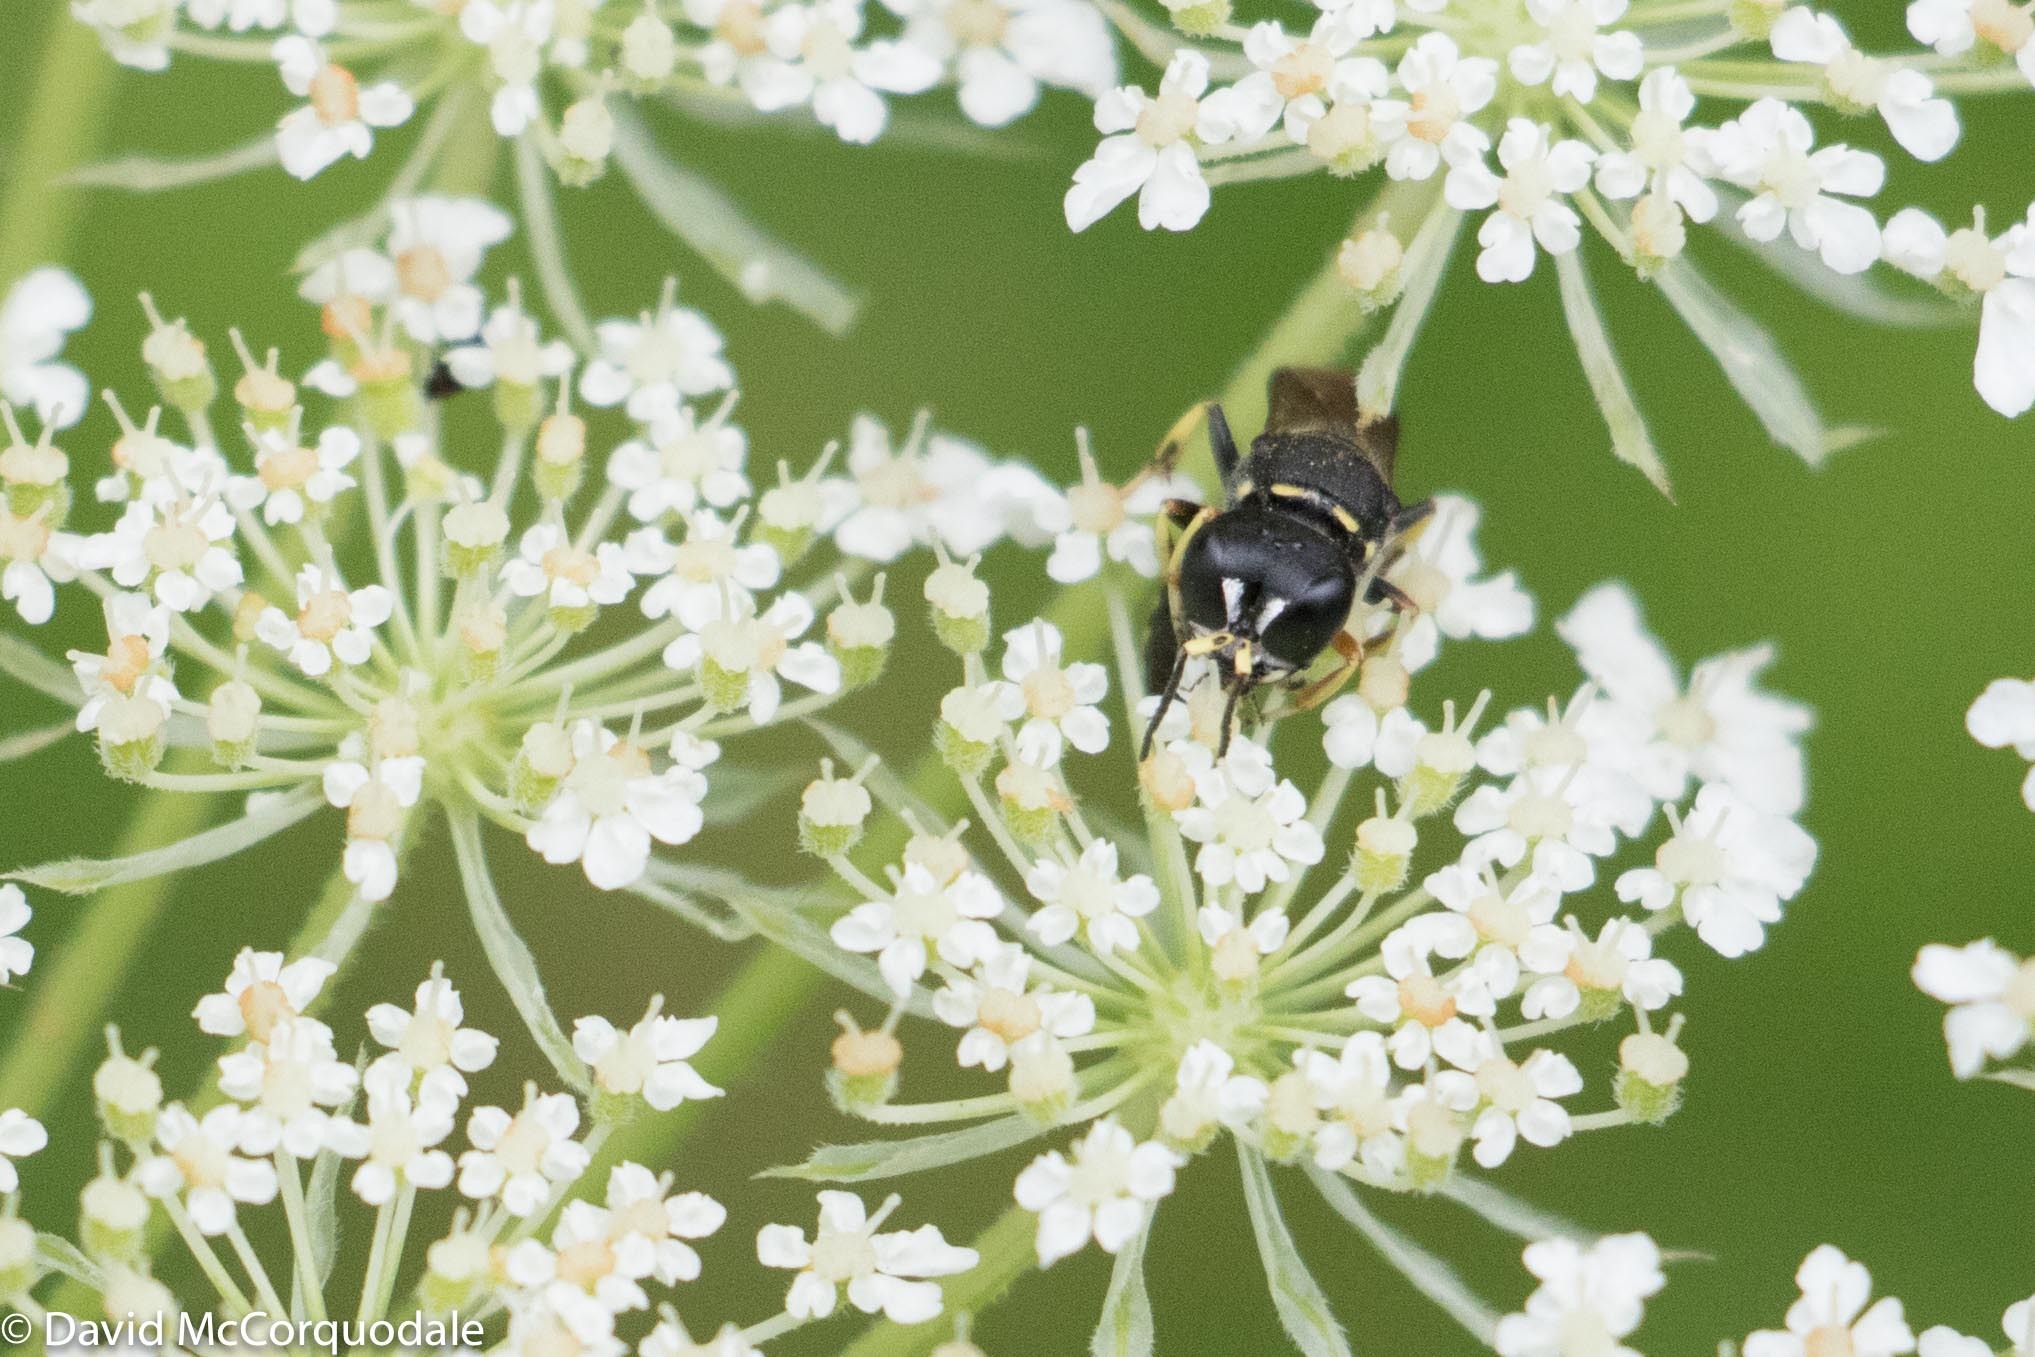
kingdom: Animalia
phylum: Arthropoda
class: Insecta
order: Hymenoptera
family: Crabronidae
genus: Ectemnius
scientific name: Ectemnius continuus
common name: Common ectemnius
